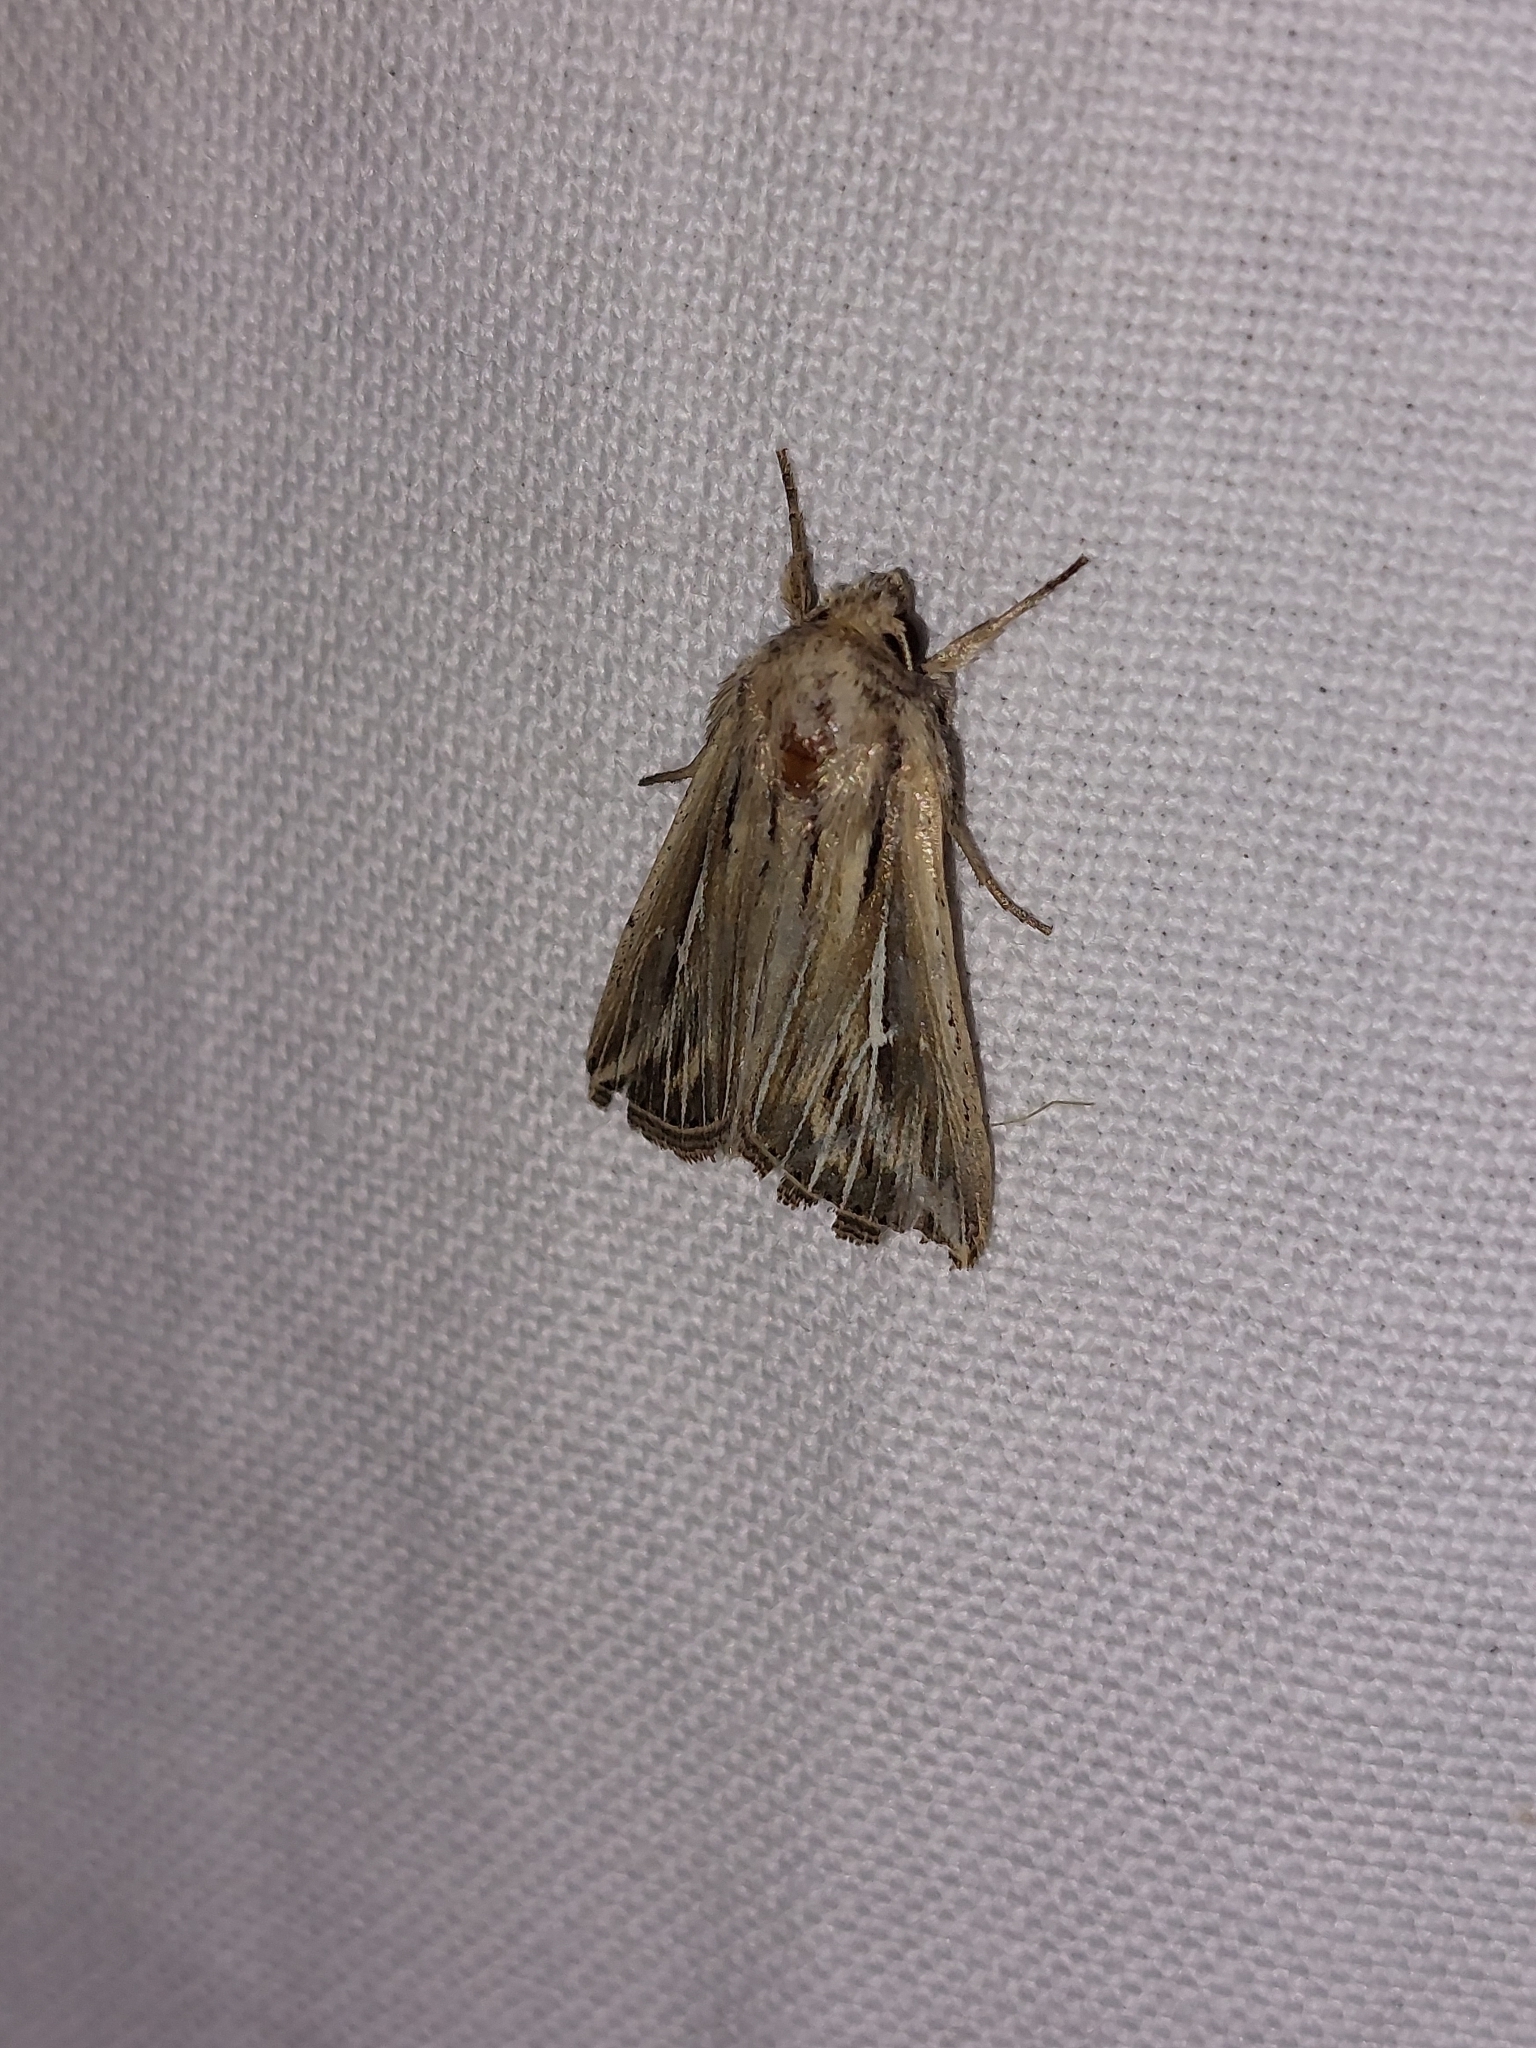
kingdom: Animalia
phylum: Arthropoda
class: Insecta
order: Lepidoptera
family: Noctuidae
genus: Mythimna
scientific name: Mythimna l-album
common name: L-album wainscot
